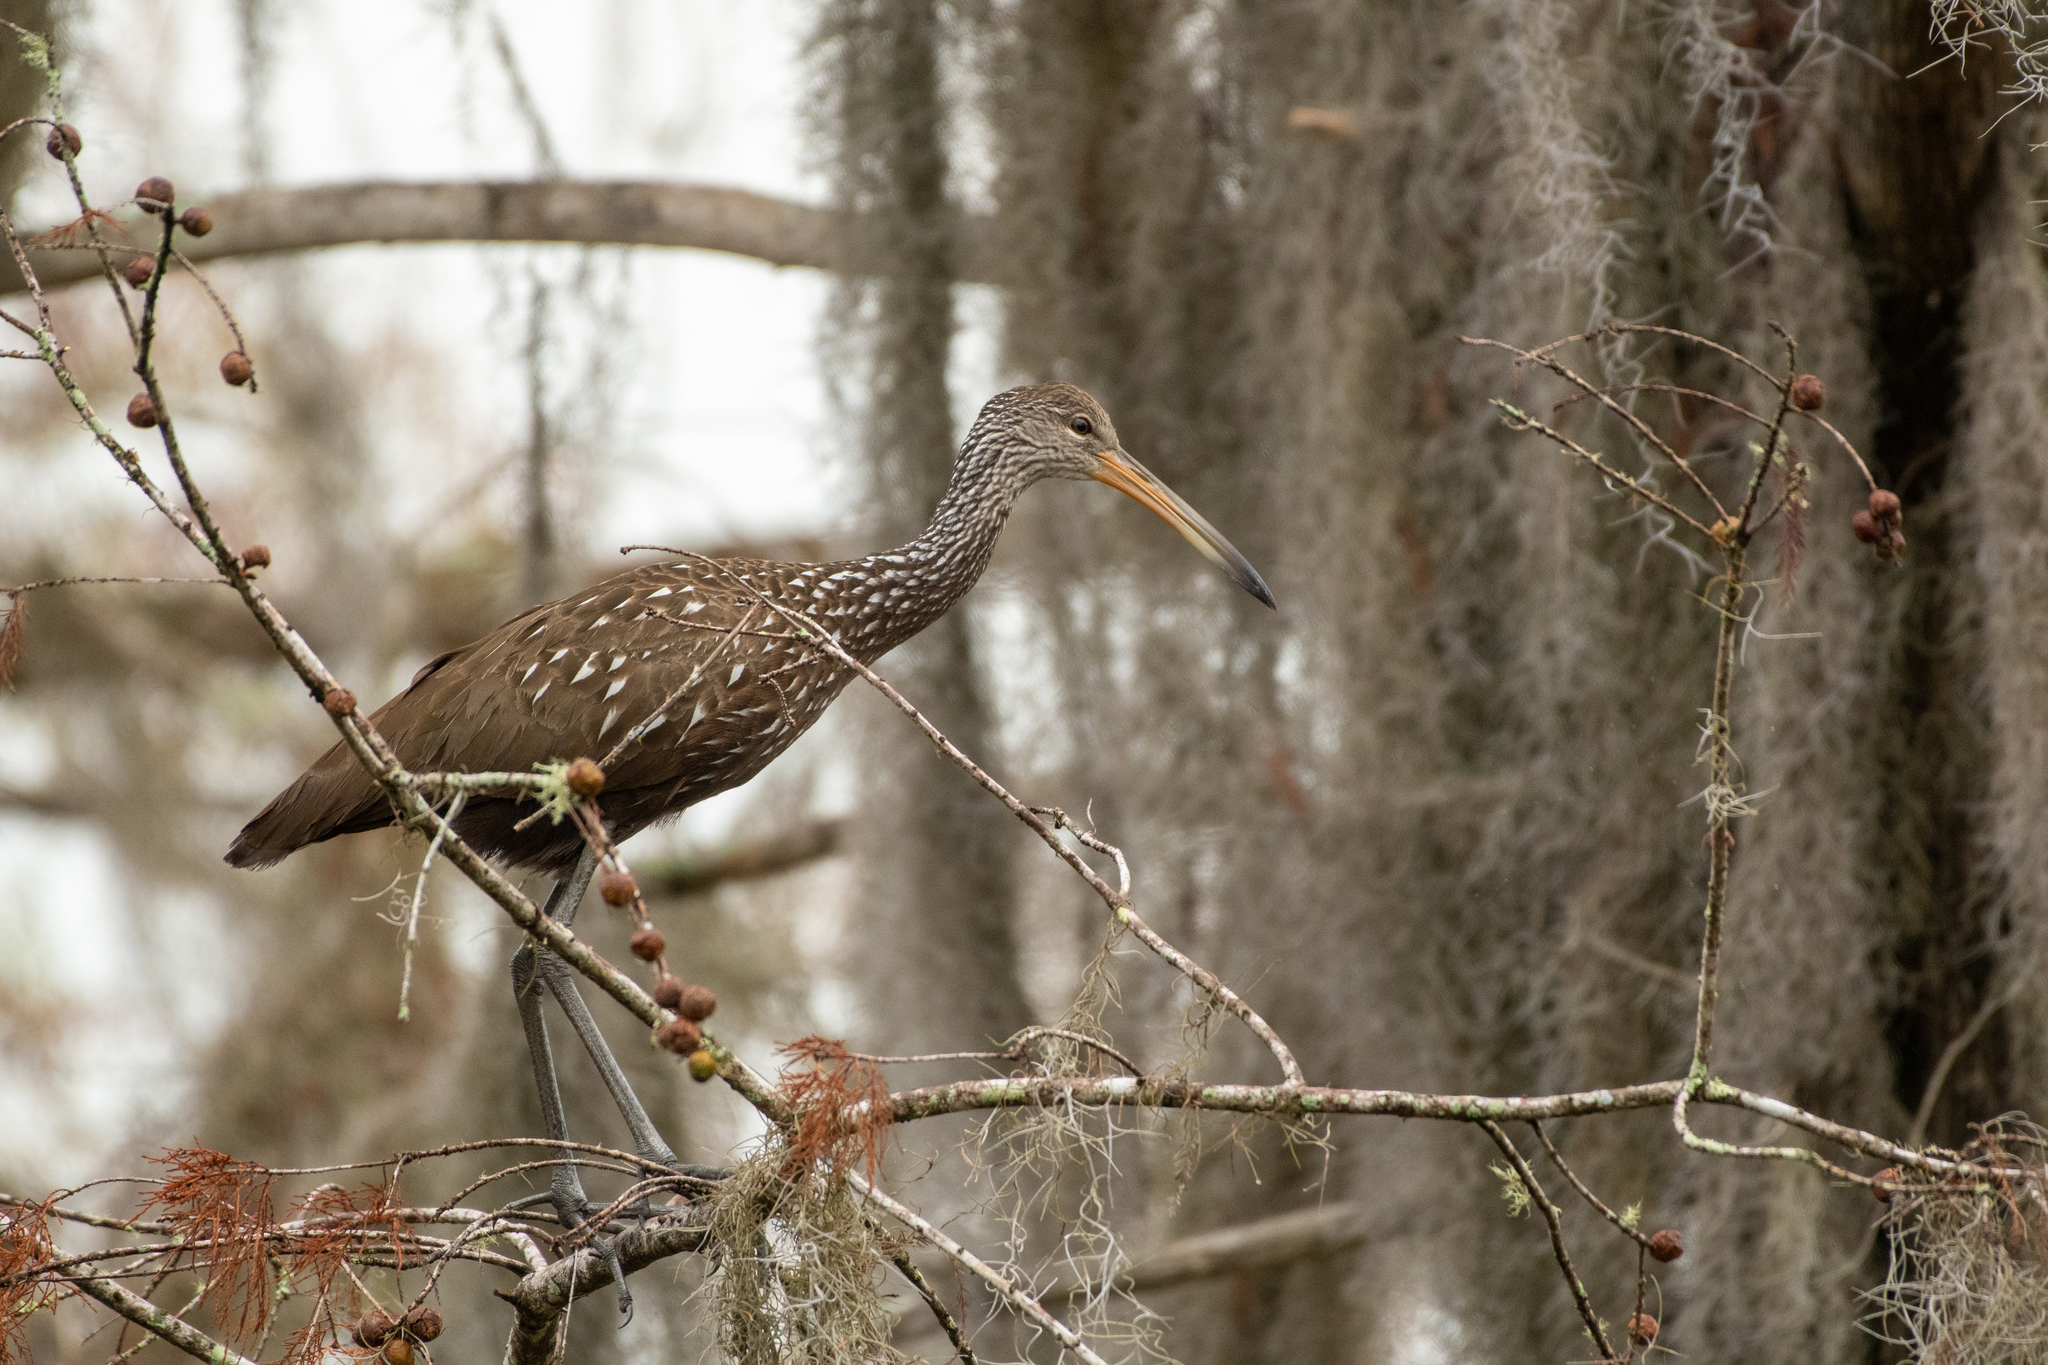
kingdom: Animalia
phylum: Chordata
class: Aves
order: Gruiformes
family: Aramidae
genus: Aramus
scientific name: Aramus guarauna
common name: Limpkin
